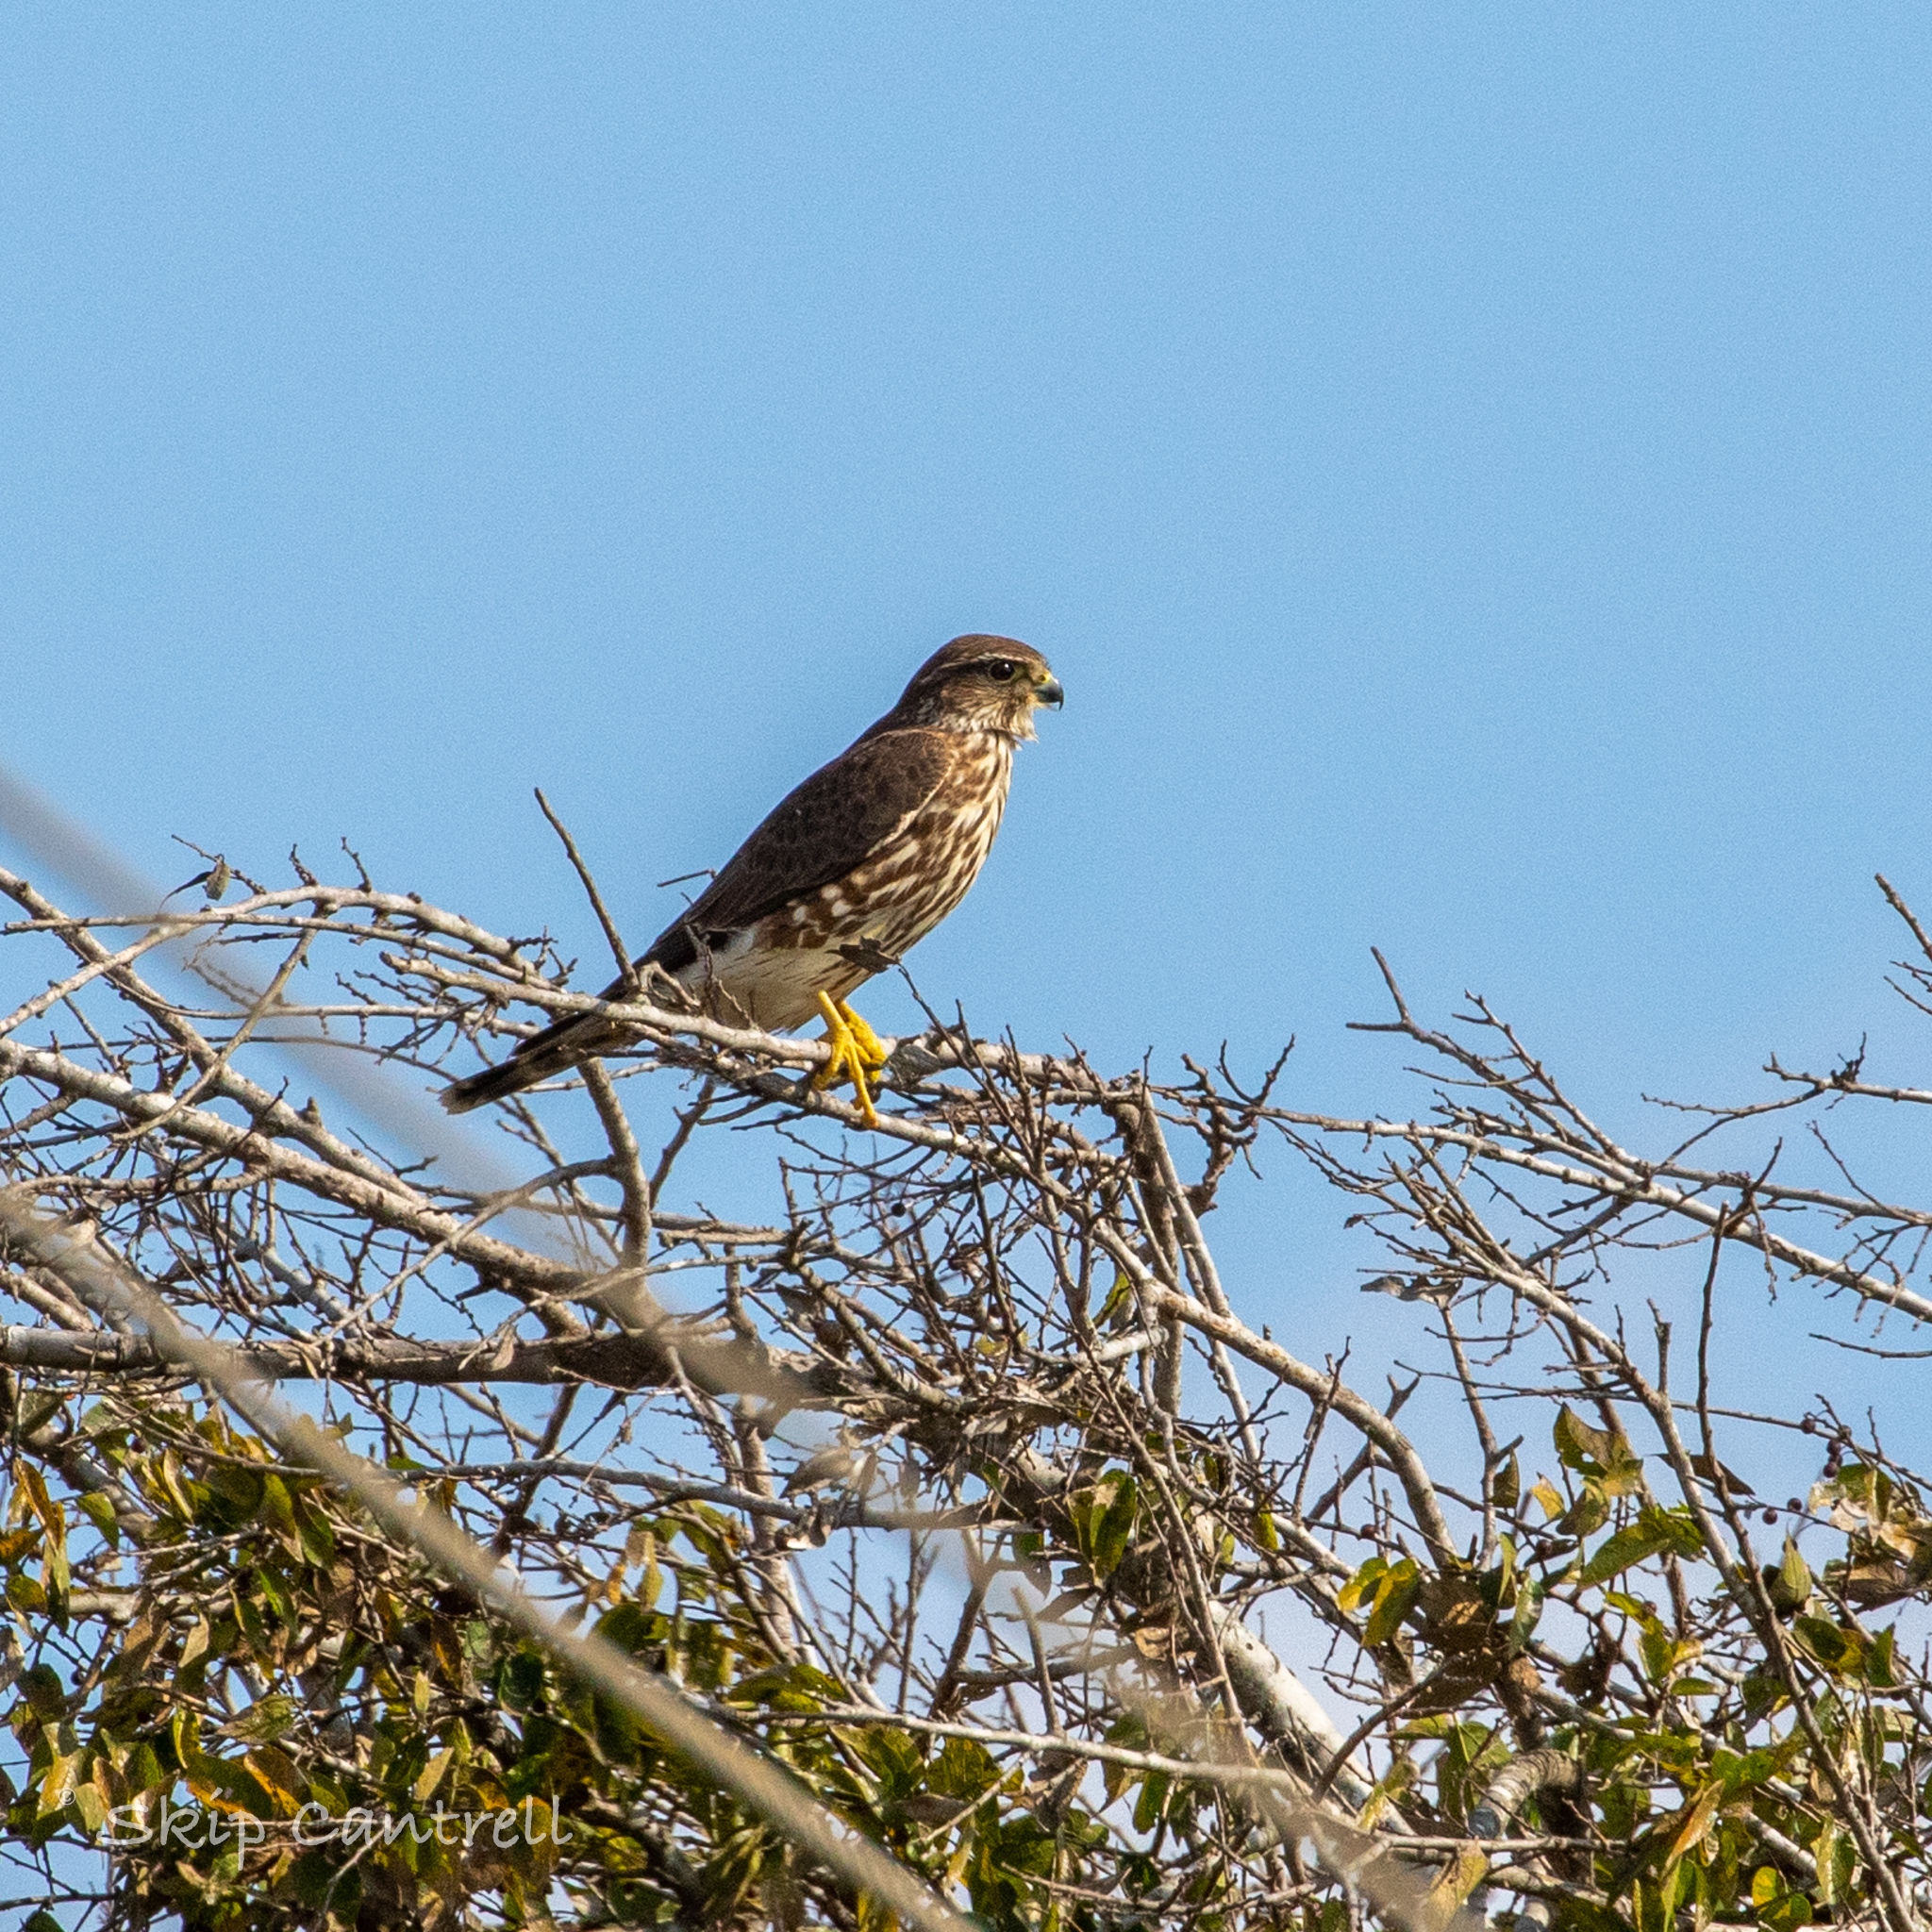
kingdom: Animalia
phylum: Chordata
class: Aves
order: Falconiformes
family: Falconidae
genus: Falco
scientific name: Falco columbarius
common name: Merlin
